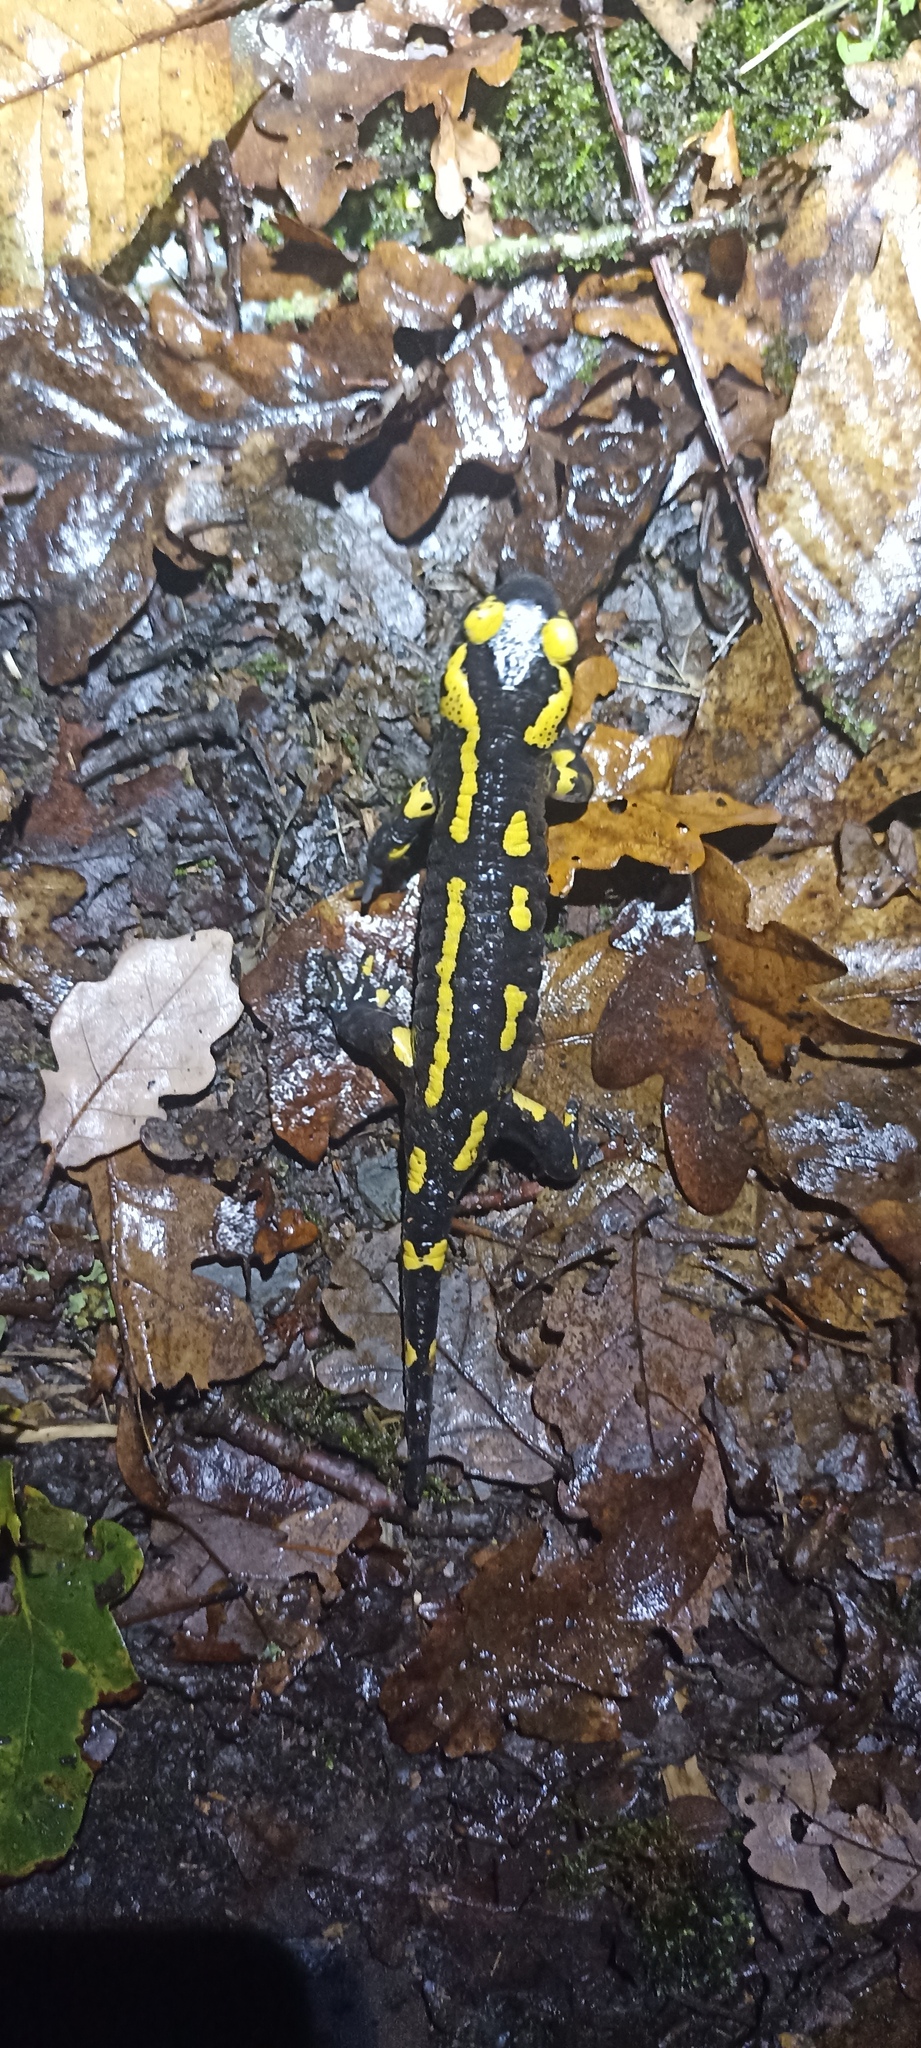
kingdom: Animalia
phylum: Chordata
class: Amphibia
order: Caudata
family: Salamandridae
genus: Salamandra
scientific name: Salamandra salamandra
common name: Fire salamander
